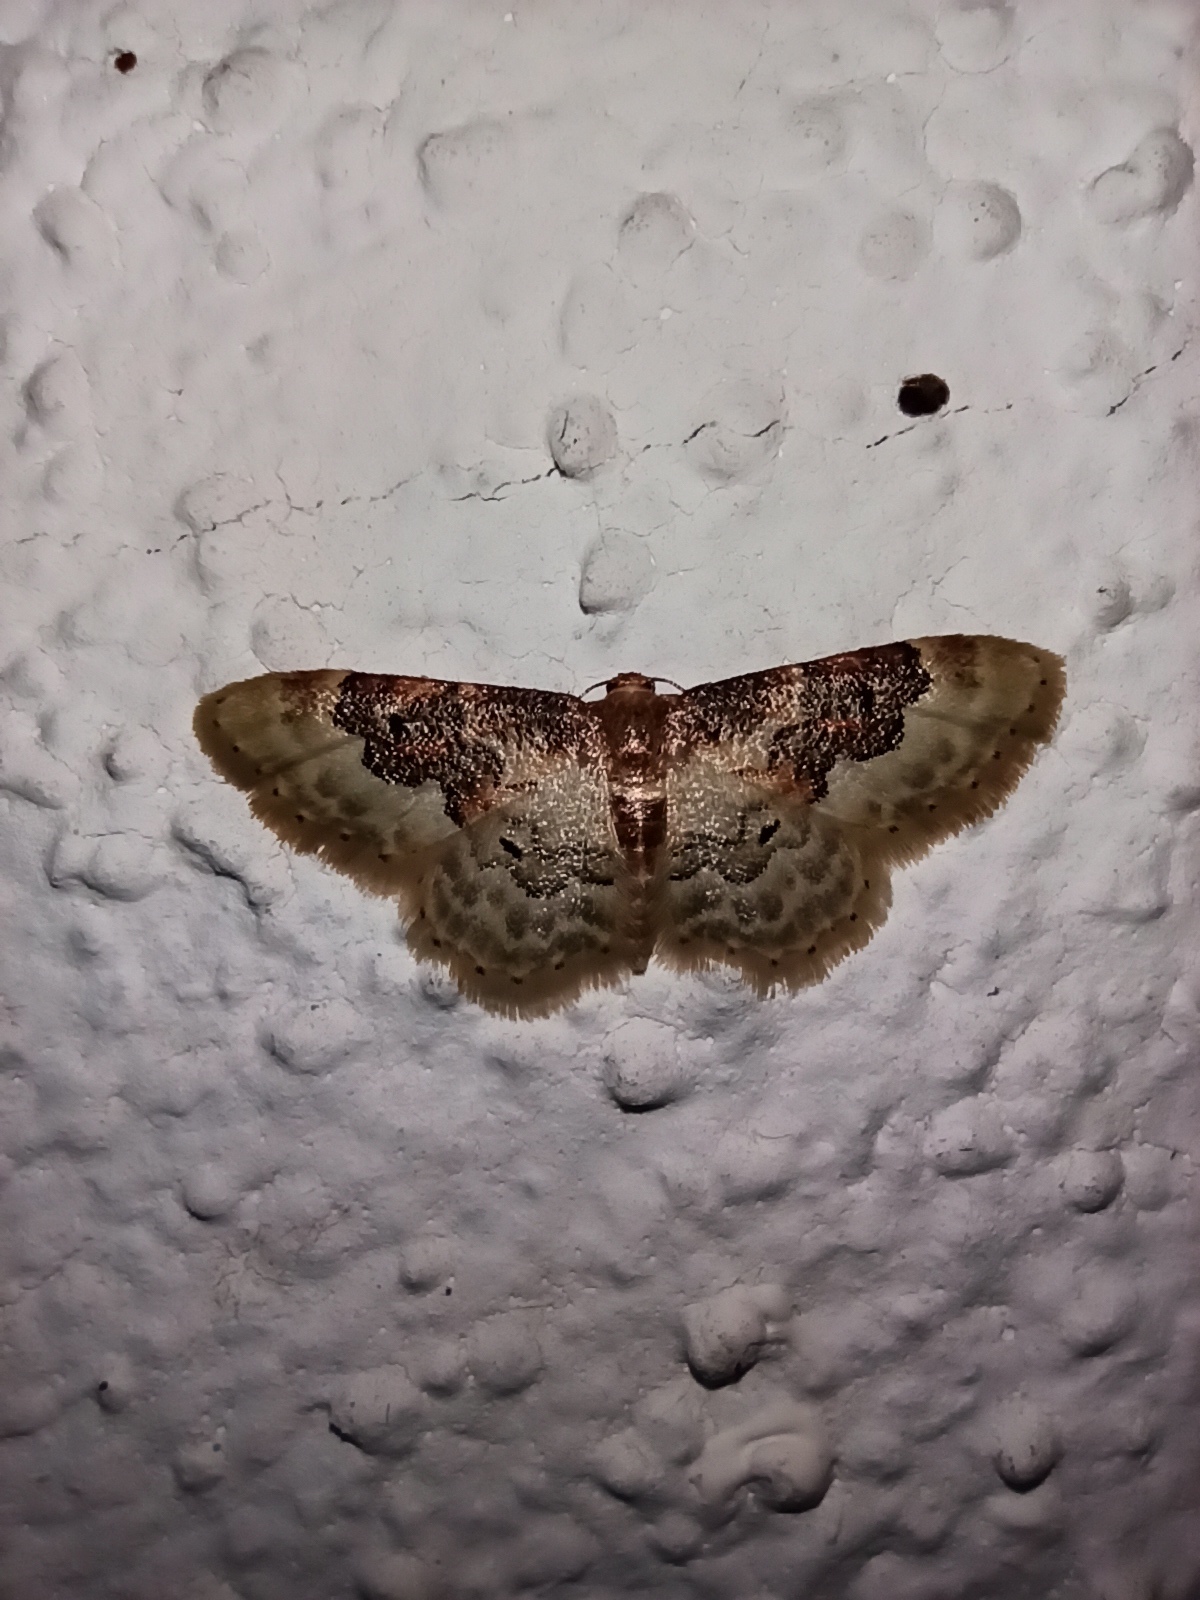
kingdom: Animalia
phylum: Arthropoda
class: Insecta
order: Lepidoptera
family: Geometridae
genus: Idaea
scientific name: Idaea rusticata
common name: Least carpet
